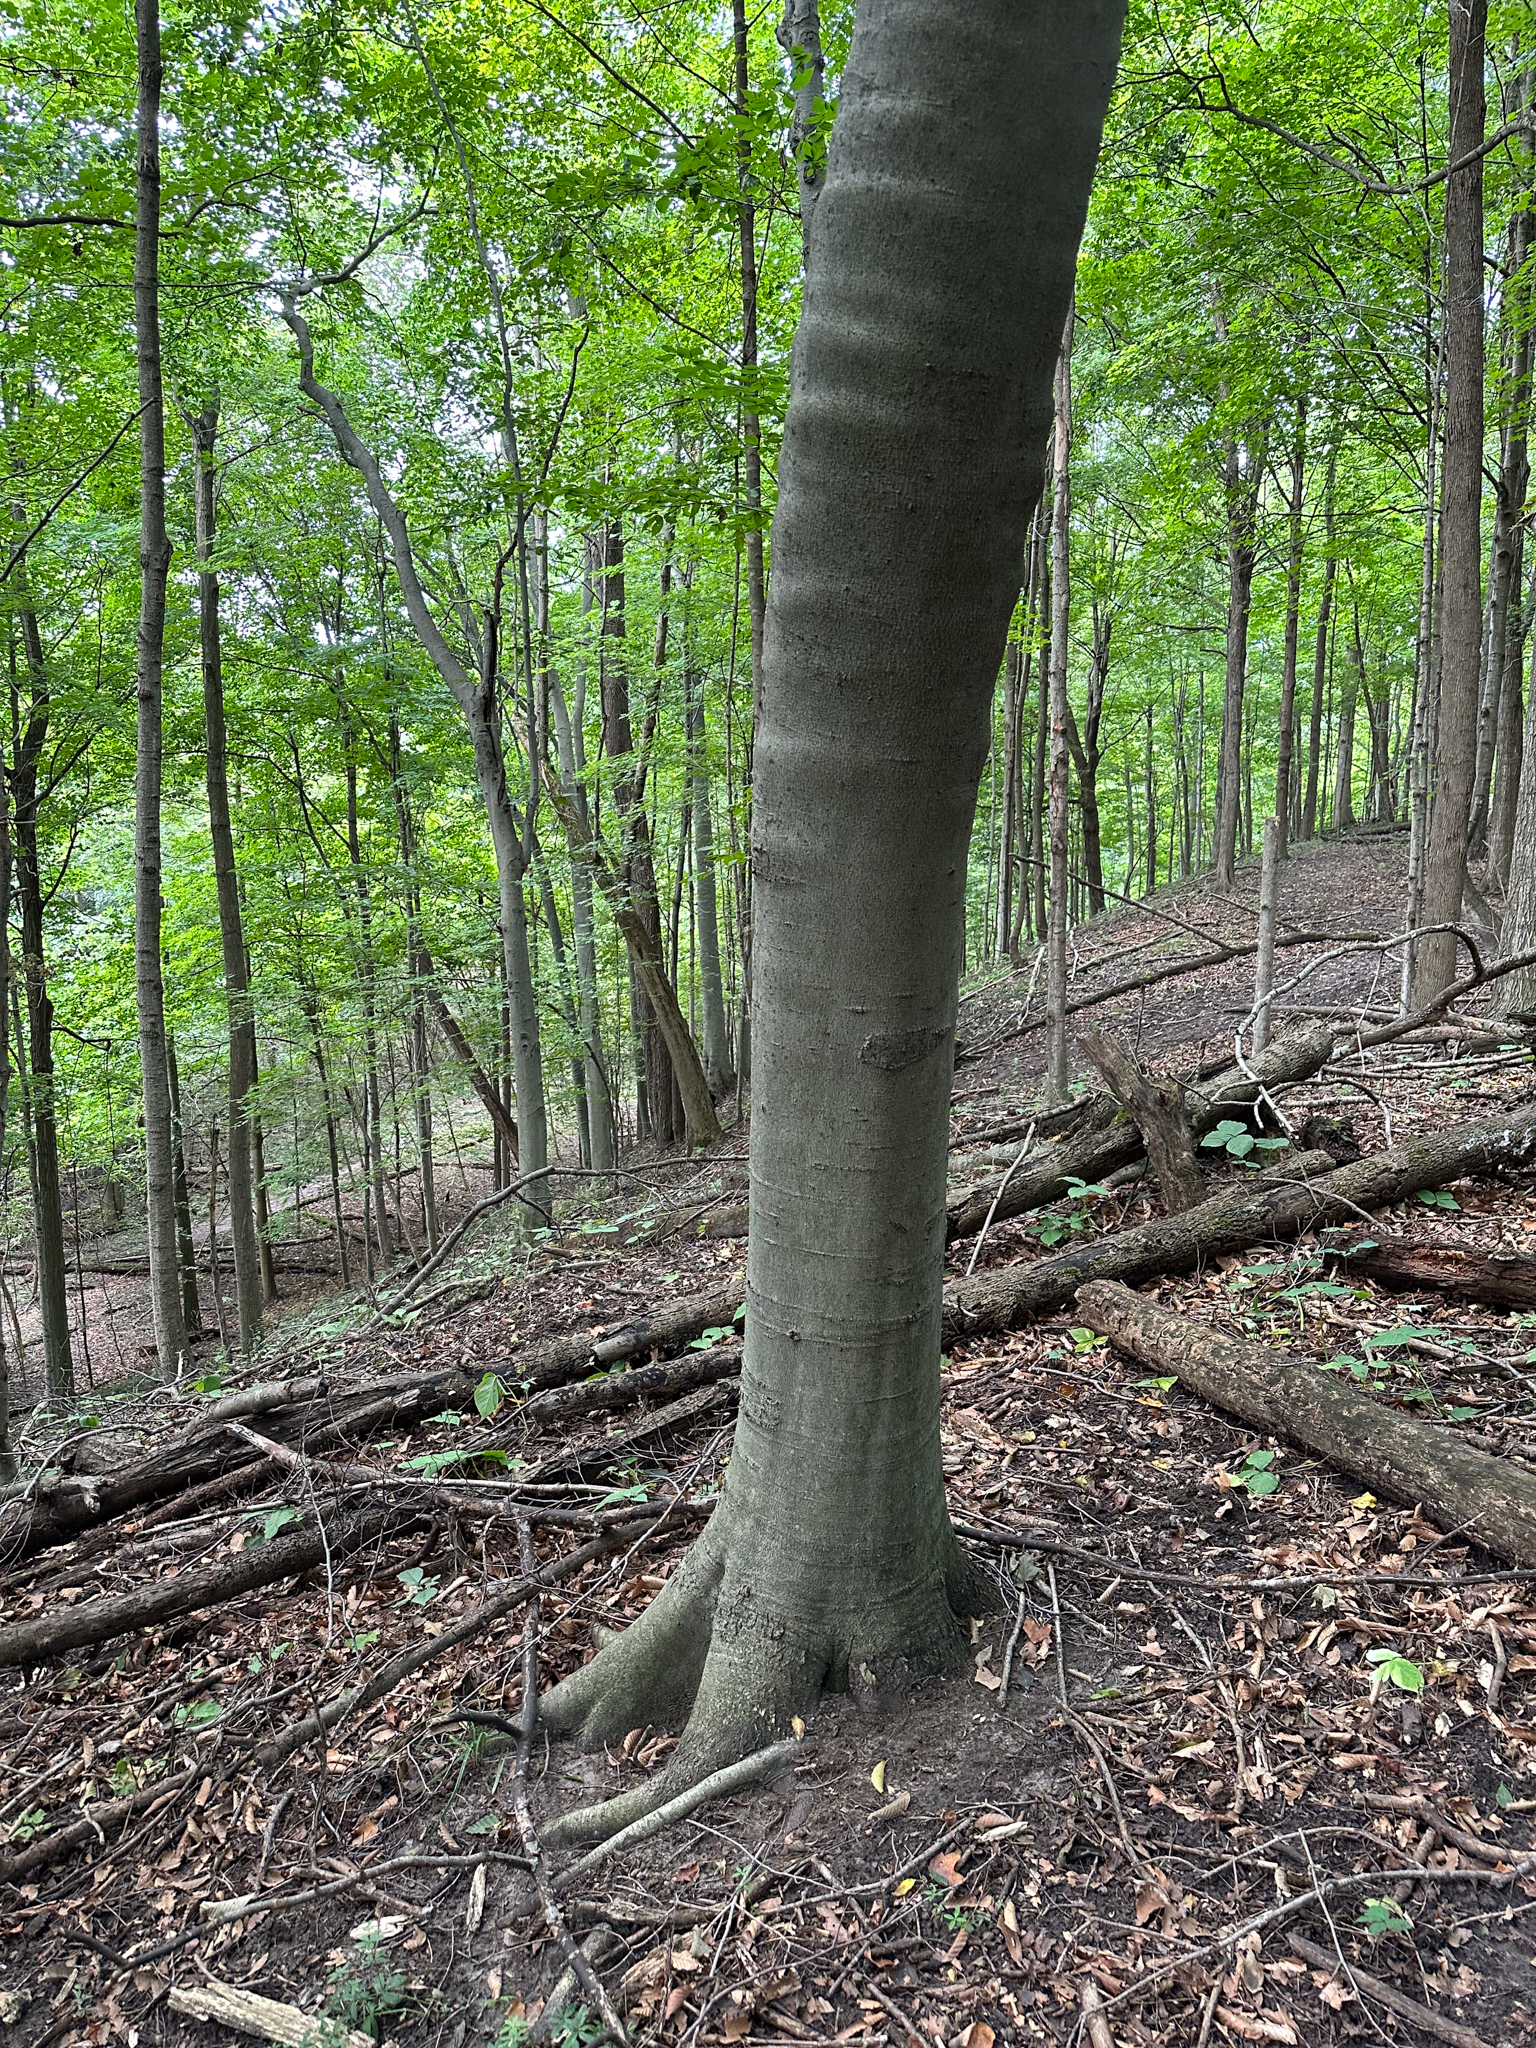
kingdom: Plantae
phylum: Tracheophyta
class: Magnoliopsida
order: Fagales
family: Fagaceae
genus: Fagus
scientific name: Fagus grandifolia
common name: American beech
